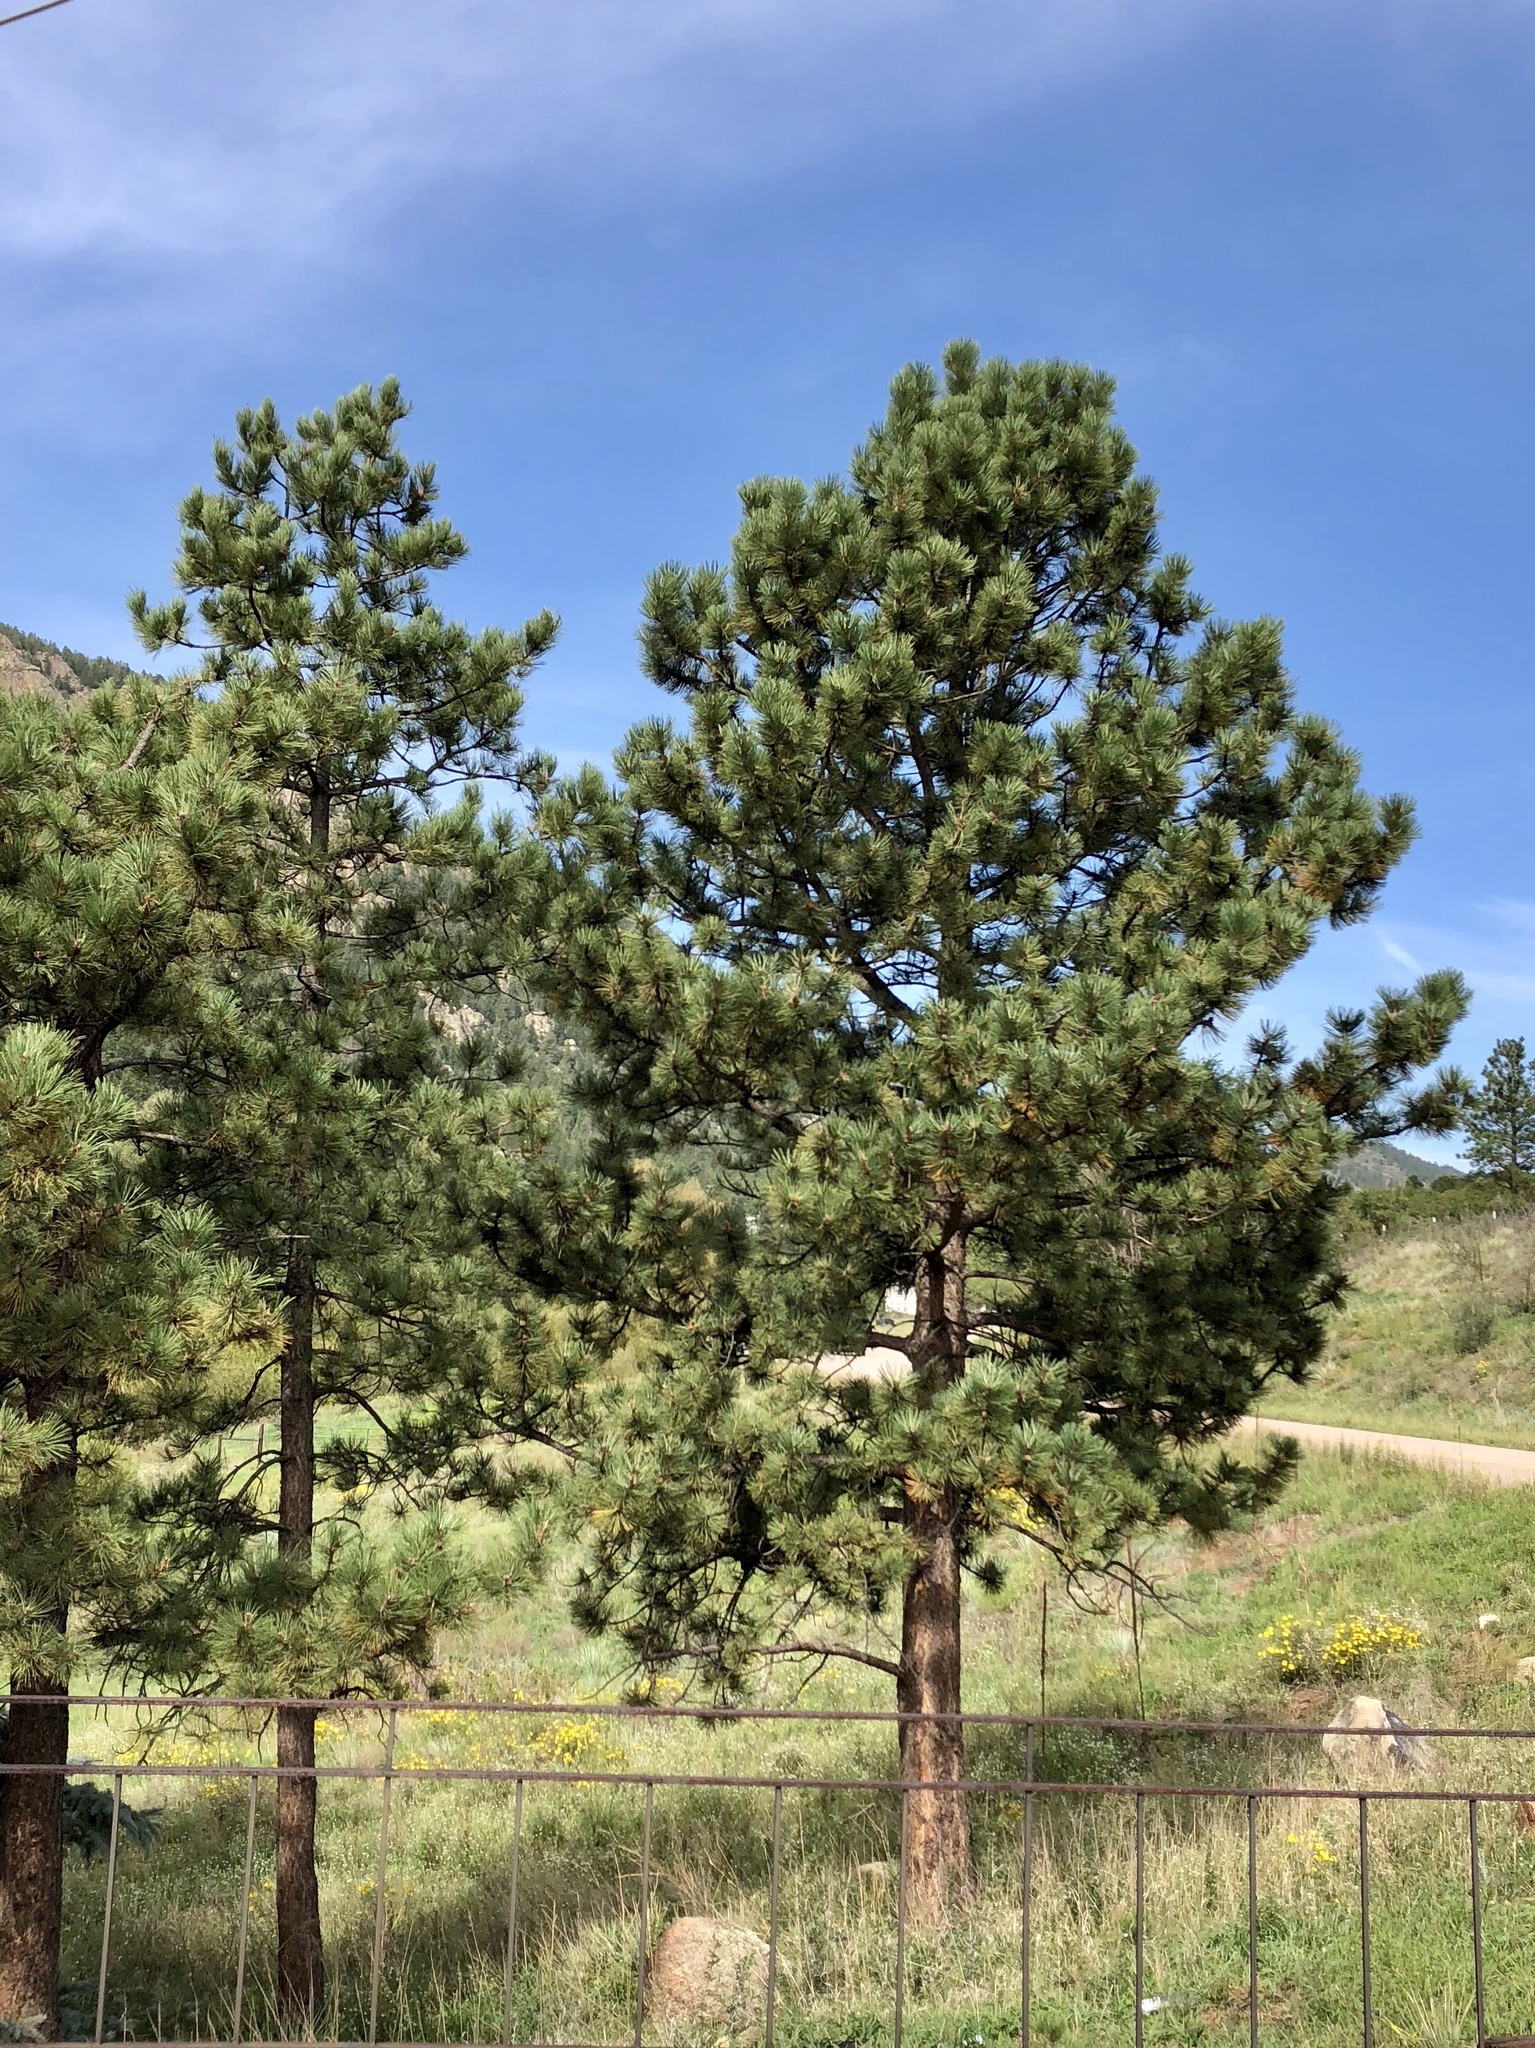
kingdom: Plantae
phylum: Tracheophyta
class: Pinopsida
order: Pinales
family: Pinaceae
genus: Pinus
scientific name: Pinus ponderosa
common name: Western yellow-pine
